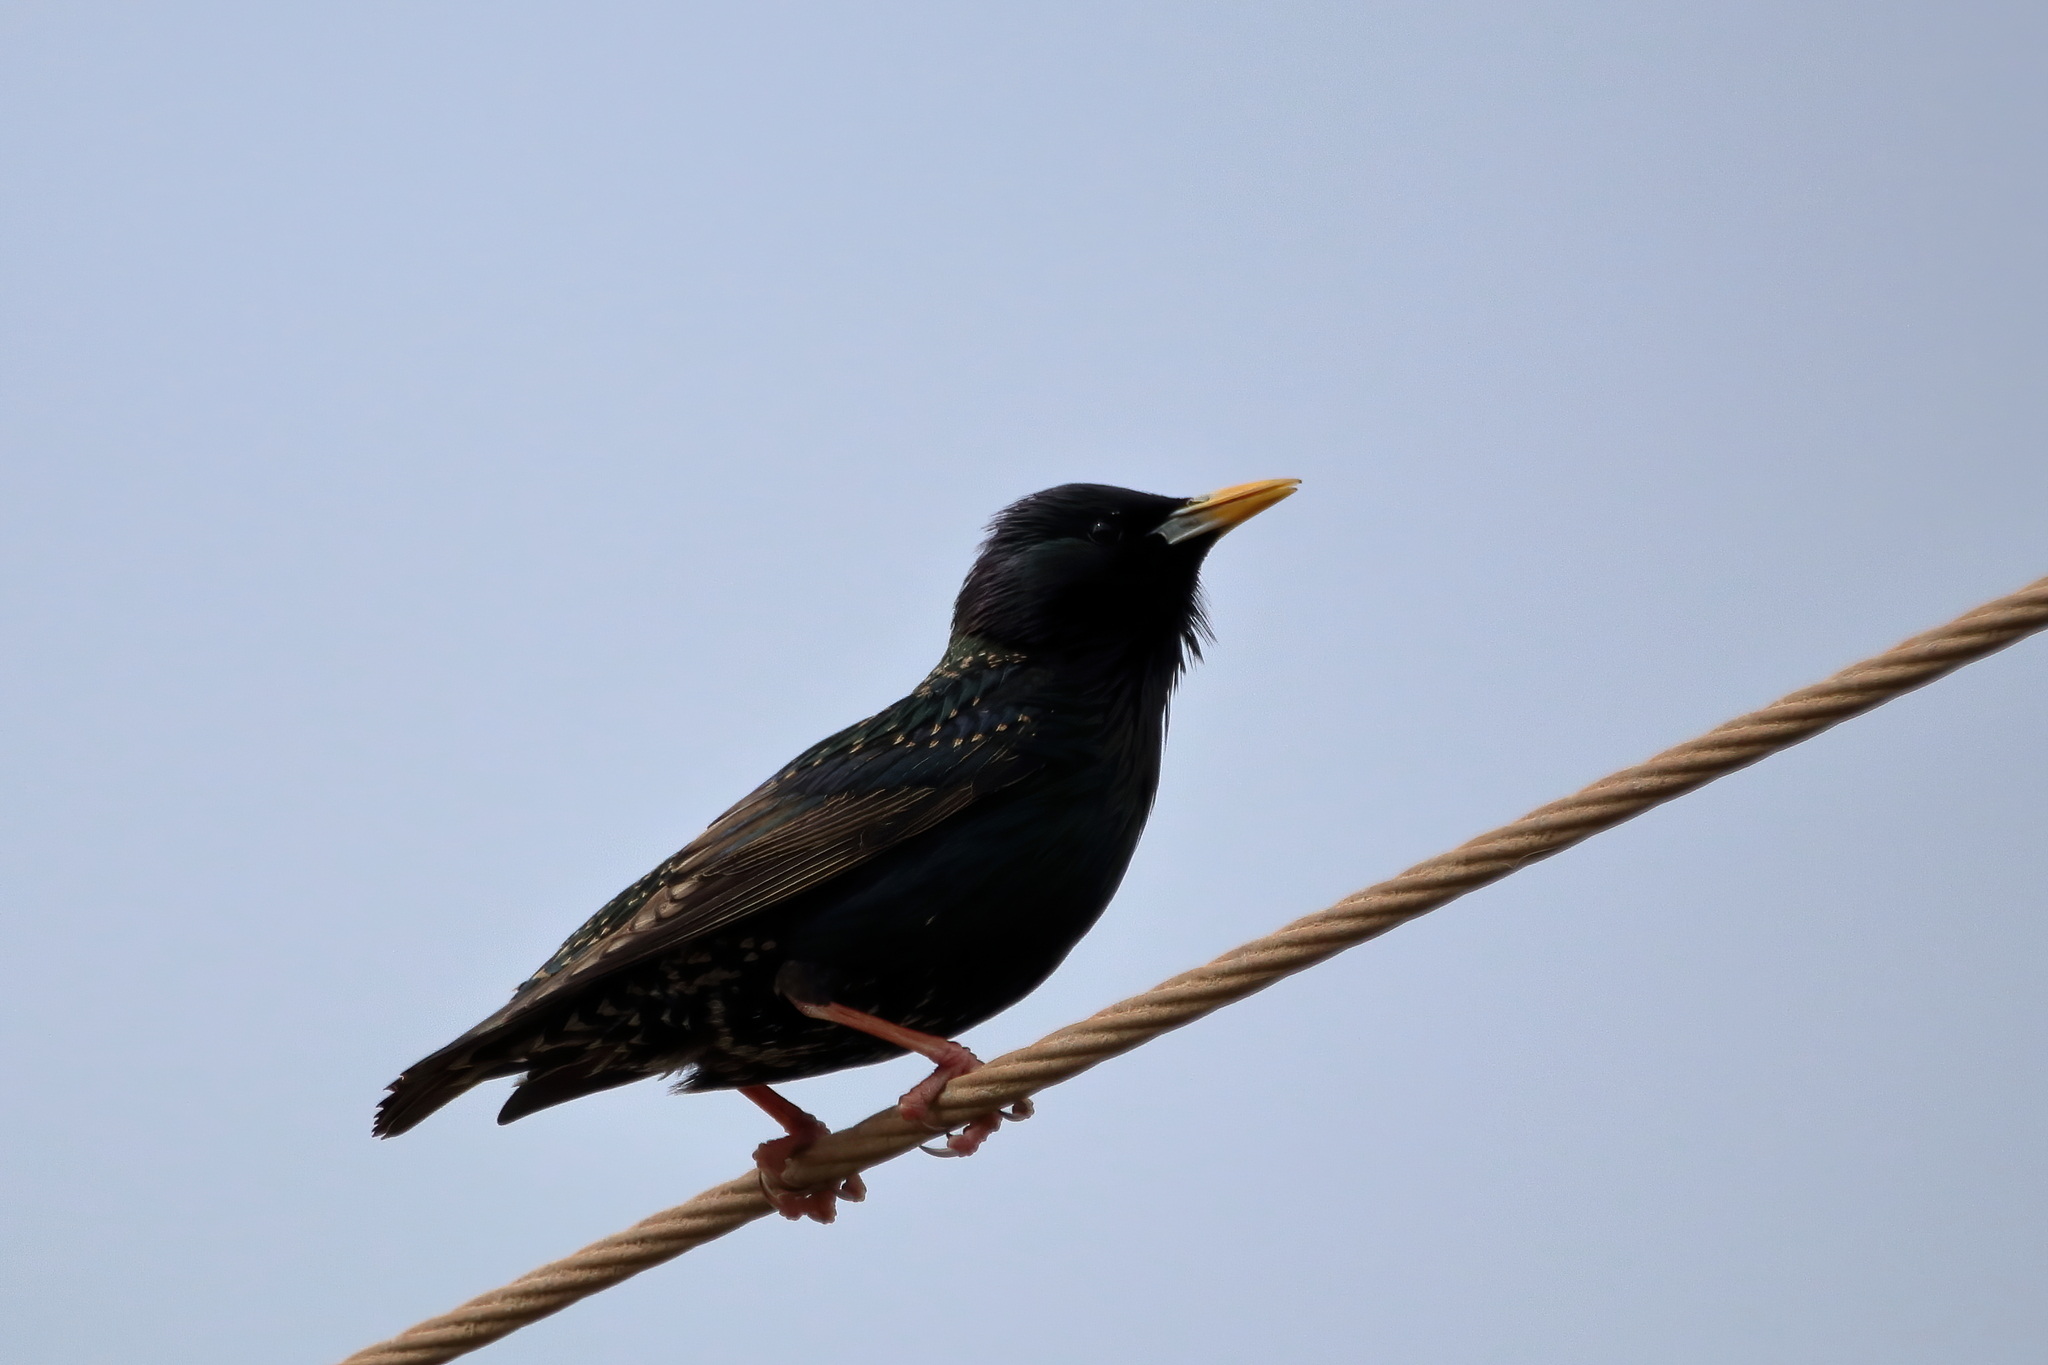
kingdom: Animalia
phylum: Chordata
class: Aves
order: Passeriformes
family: Sturnidae
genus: Sturnus
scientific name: Sturnus vulgaris
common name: Common starling
